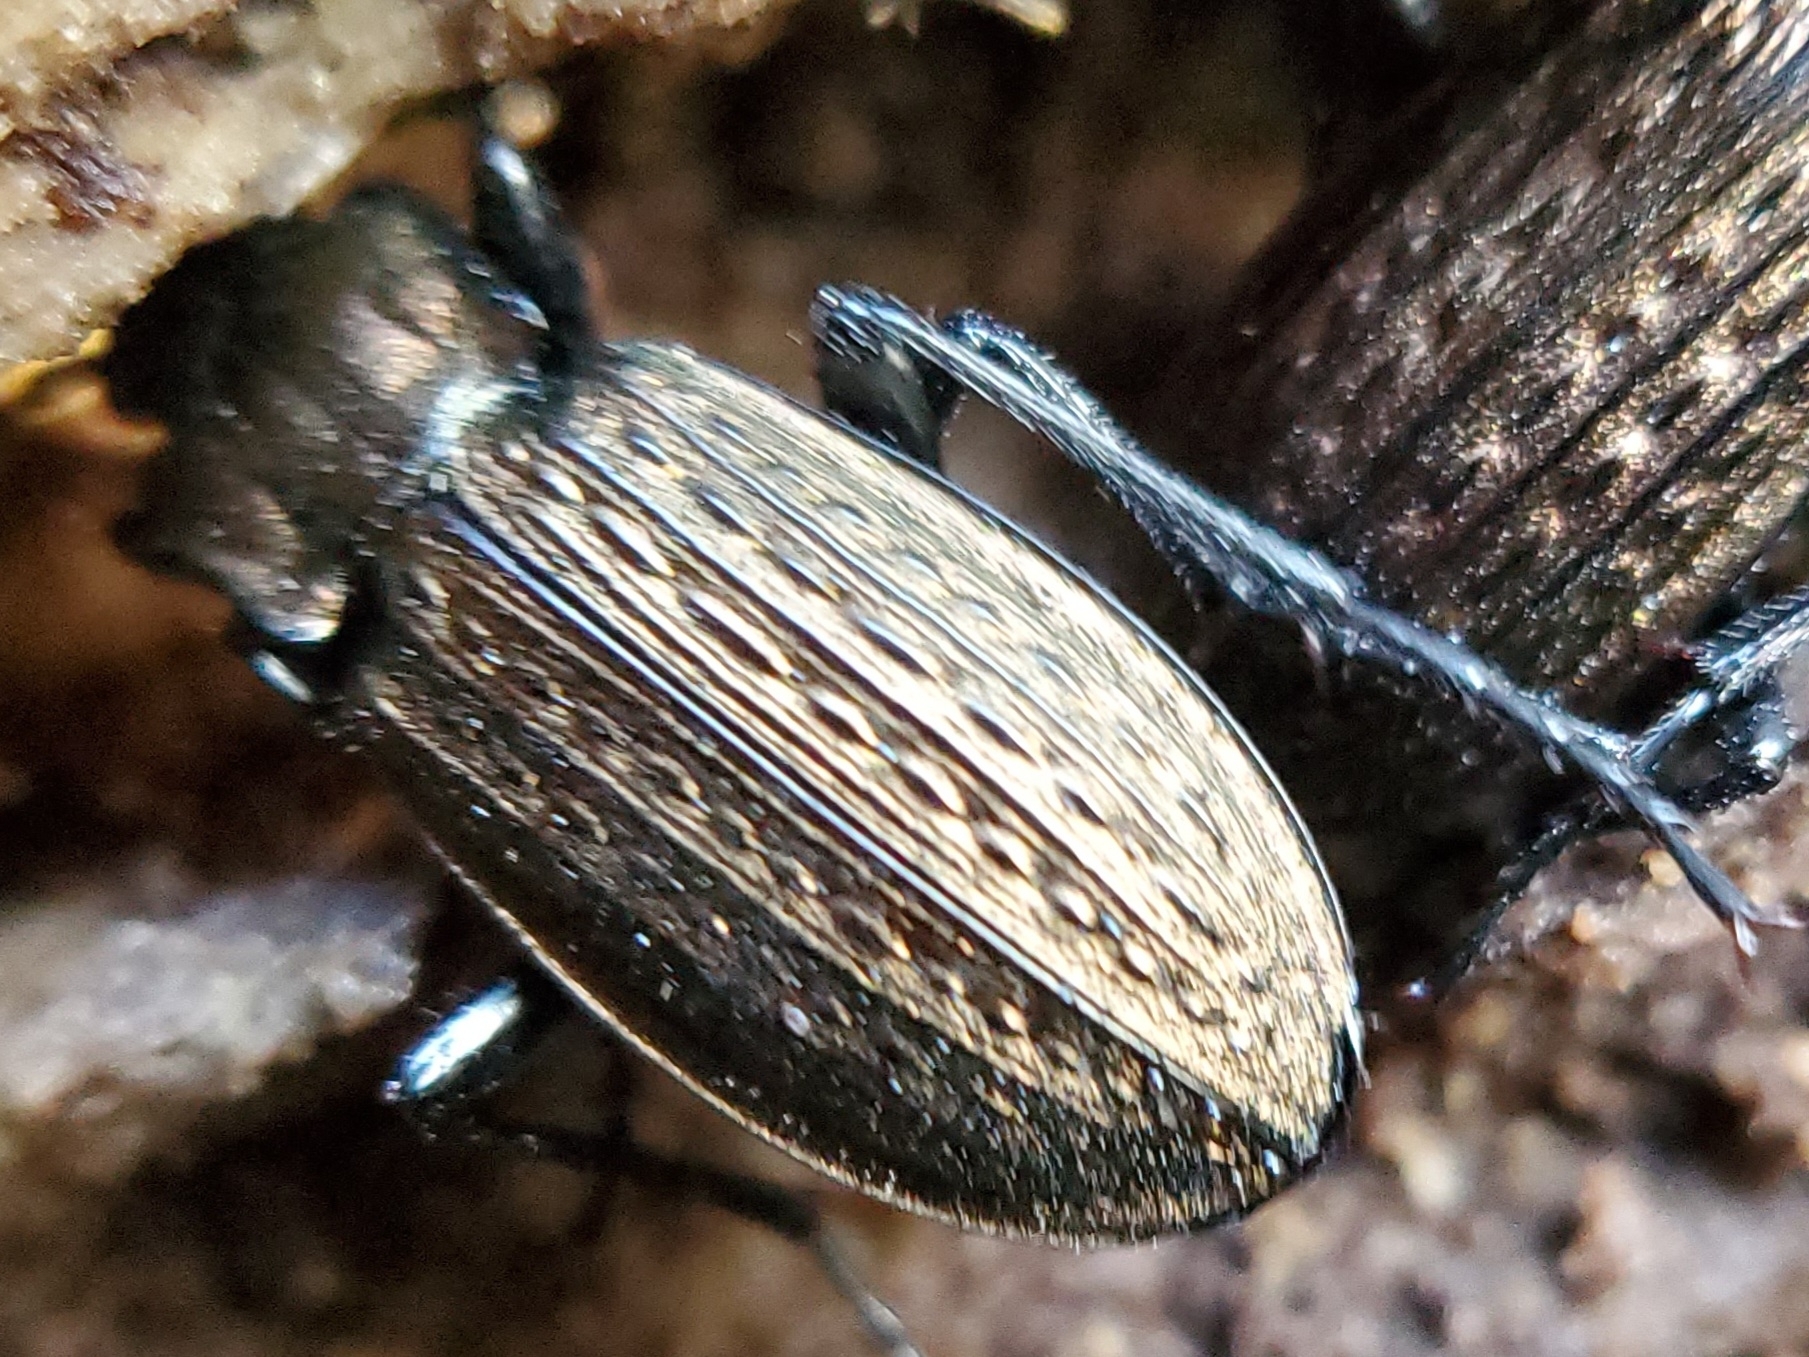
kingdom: Animalia
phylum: Arthropoda
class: Insecta
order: Coleoptera
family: Carabidae
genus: Carabus
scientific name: Carabus granulatus
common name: Granulate ground beetle
